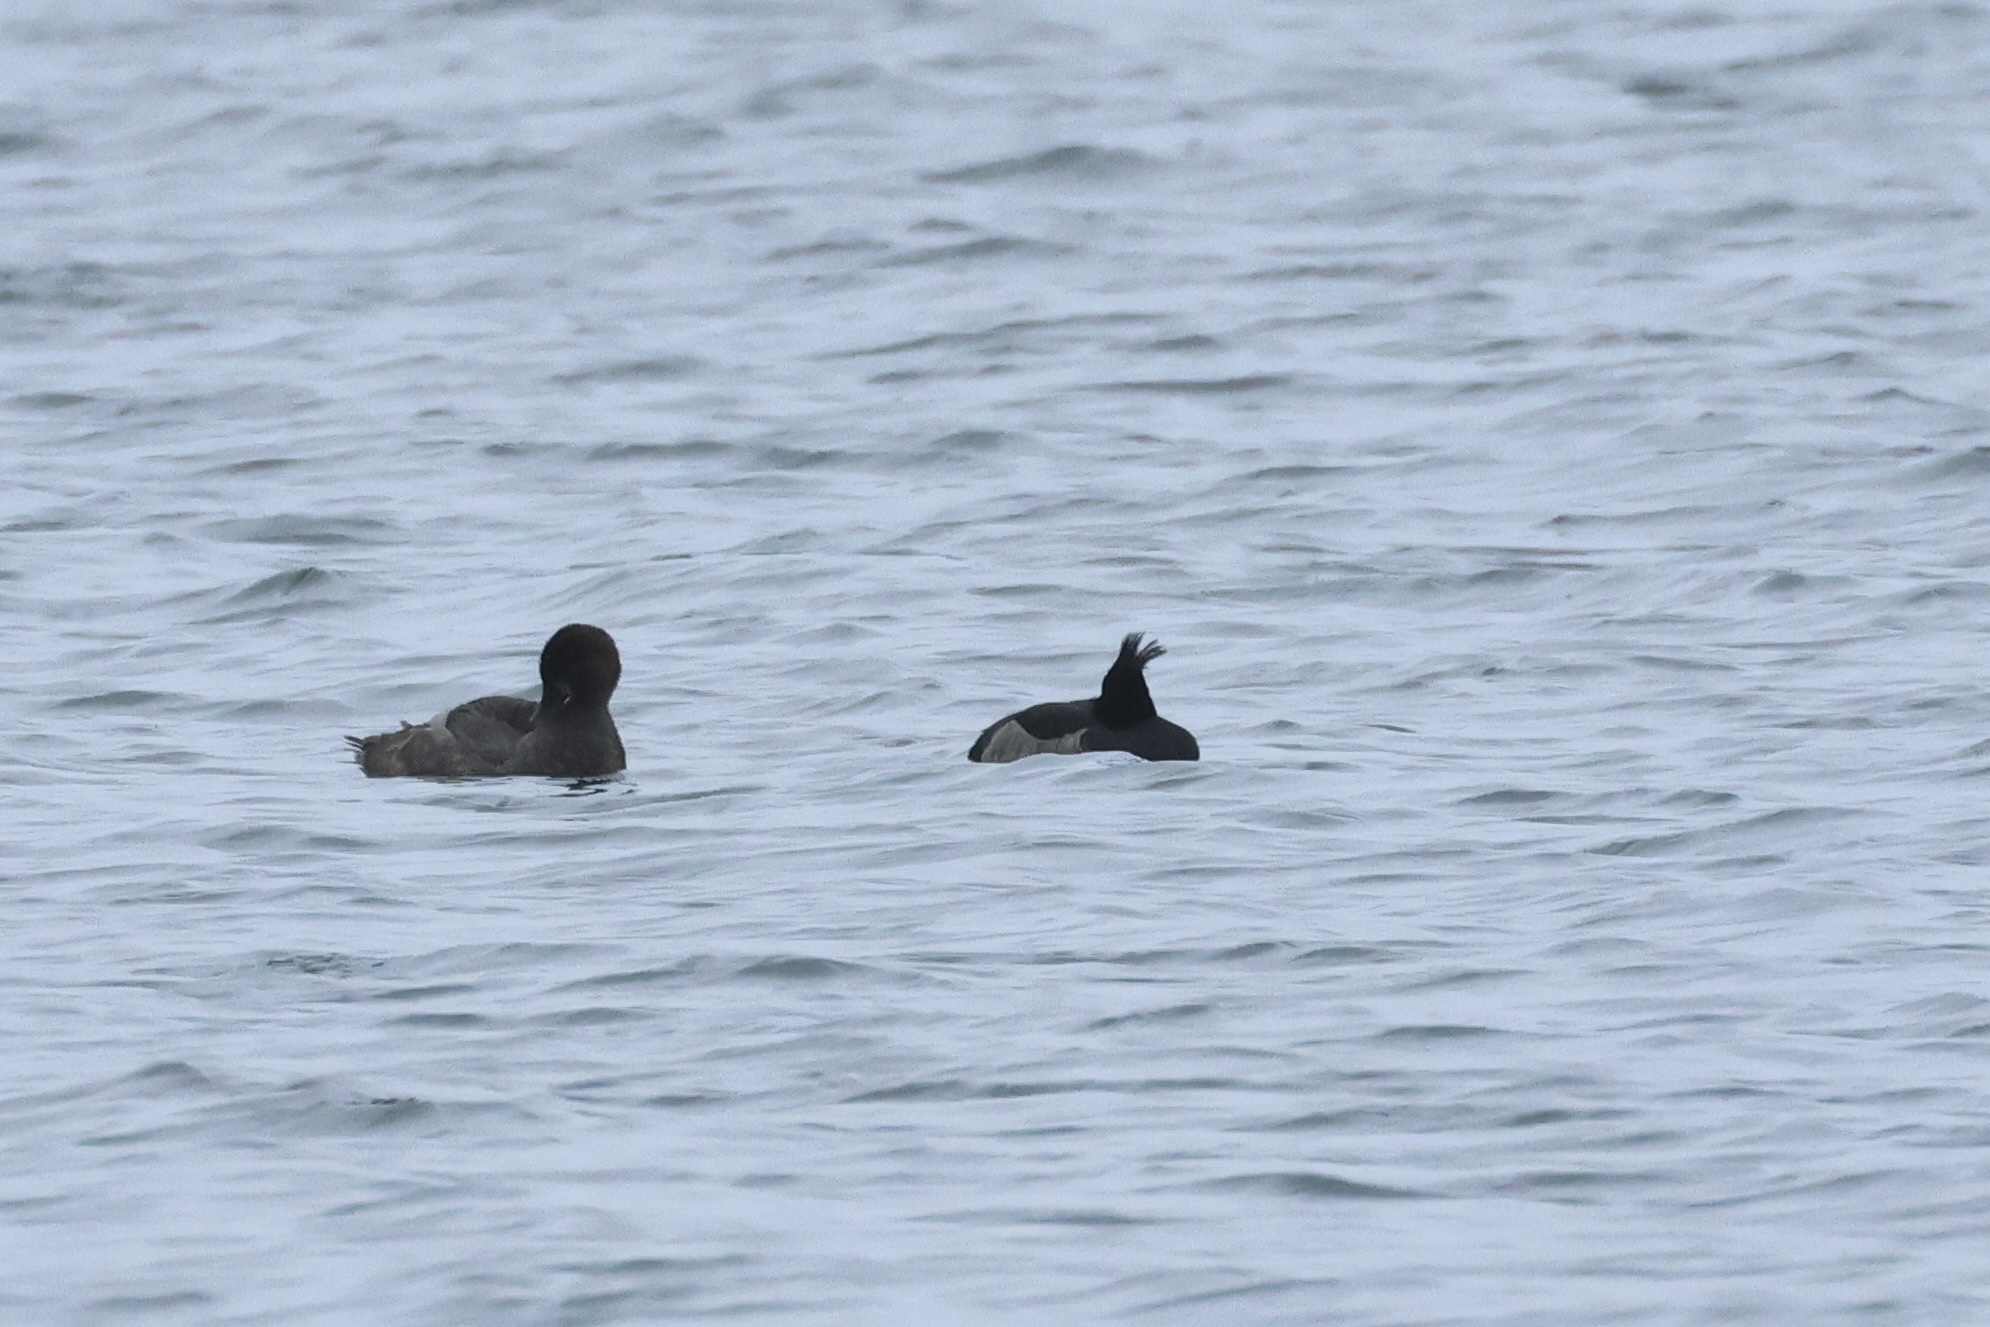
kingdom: Animalia
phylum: Chordata
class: Aves
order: Anseriformes
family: Anatidae
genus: Aythya
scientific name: Aythya fuligula
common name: Tufted duck
